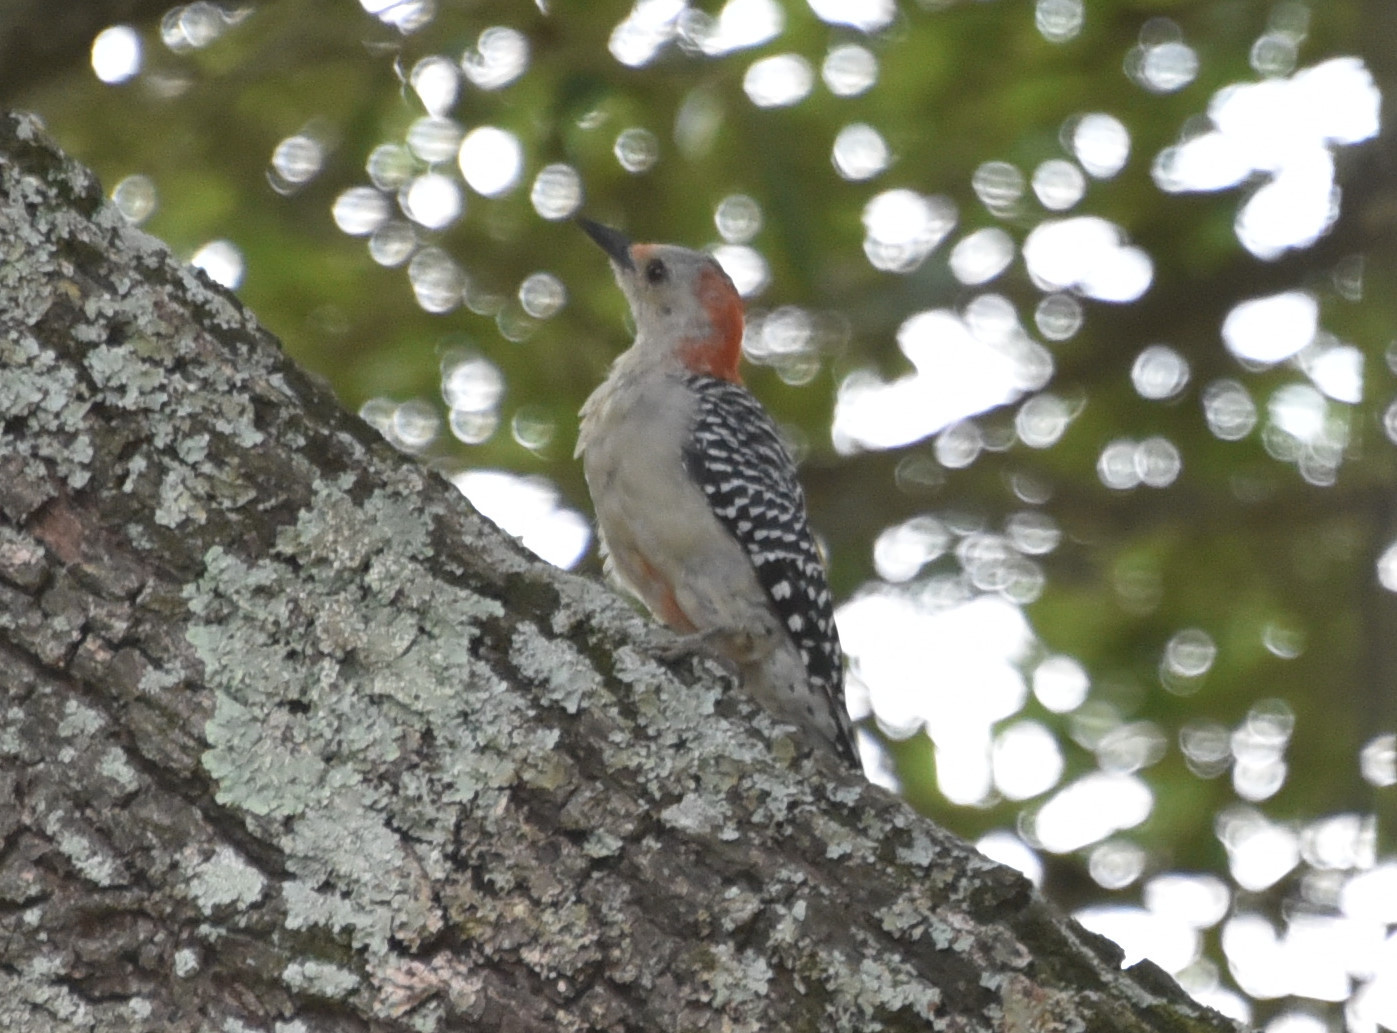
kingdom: Animalia
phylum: Chordata
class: Aves
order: Piciformes
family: Picidae
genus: Melanerpes
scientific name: Melanerpes carolinus
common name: Red-bellied woodpecker
